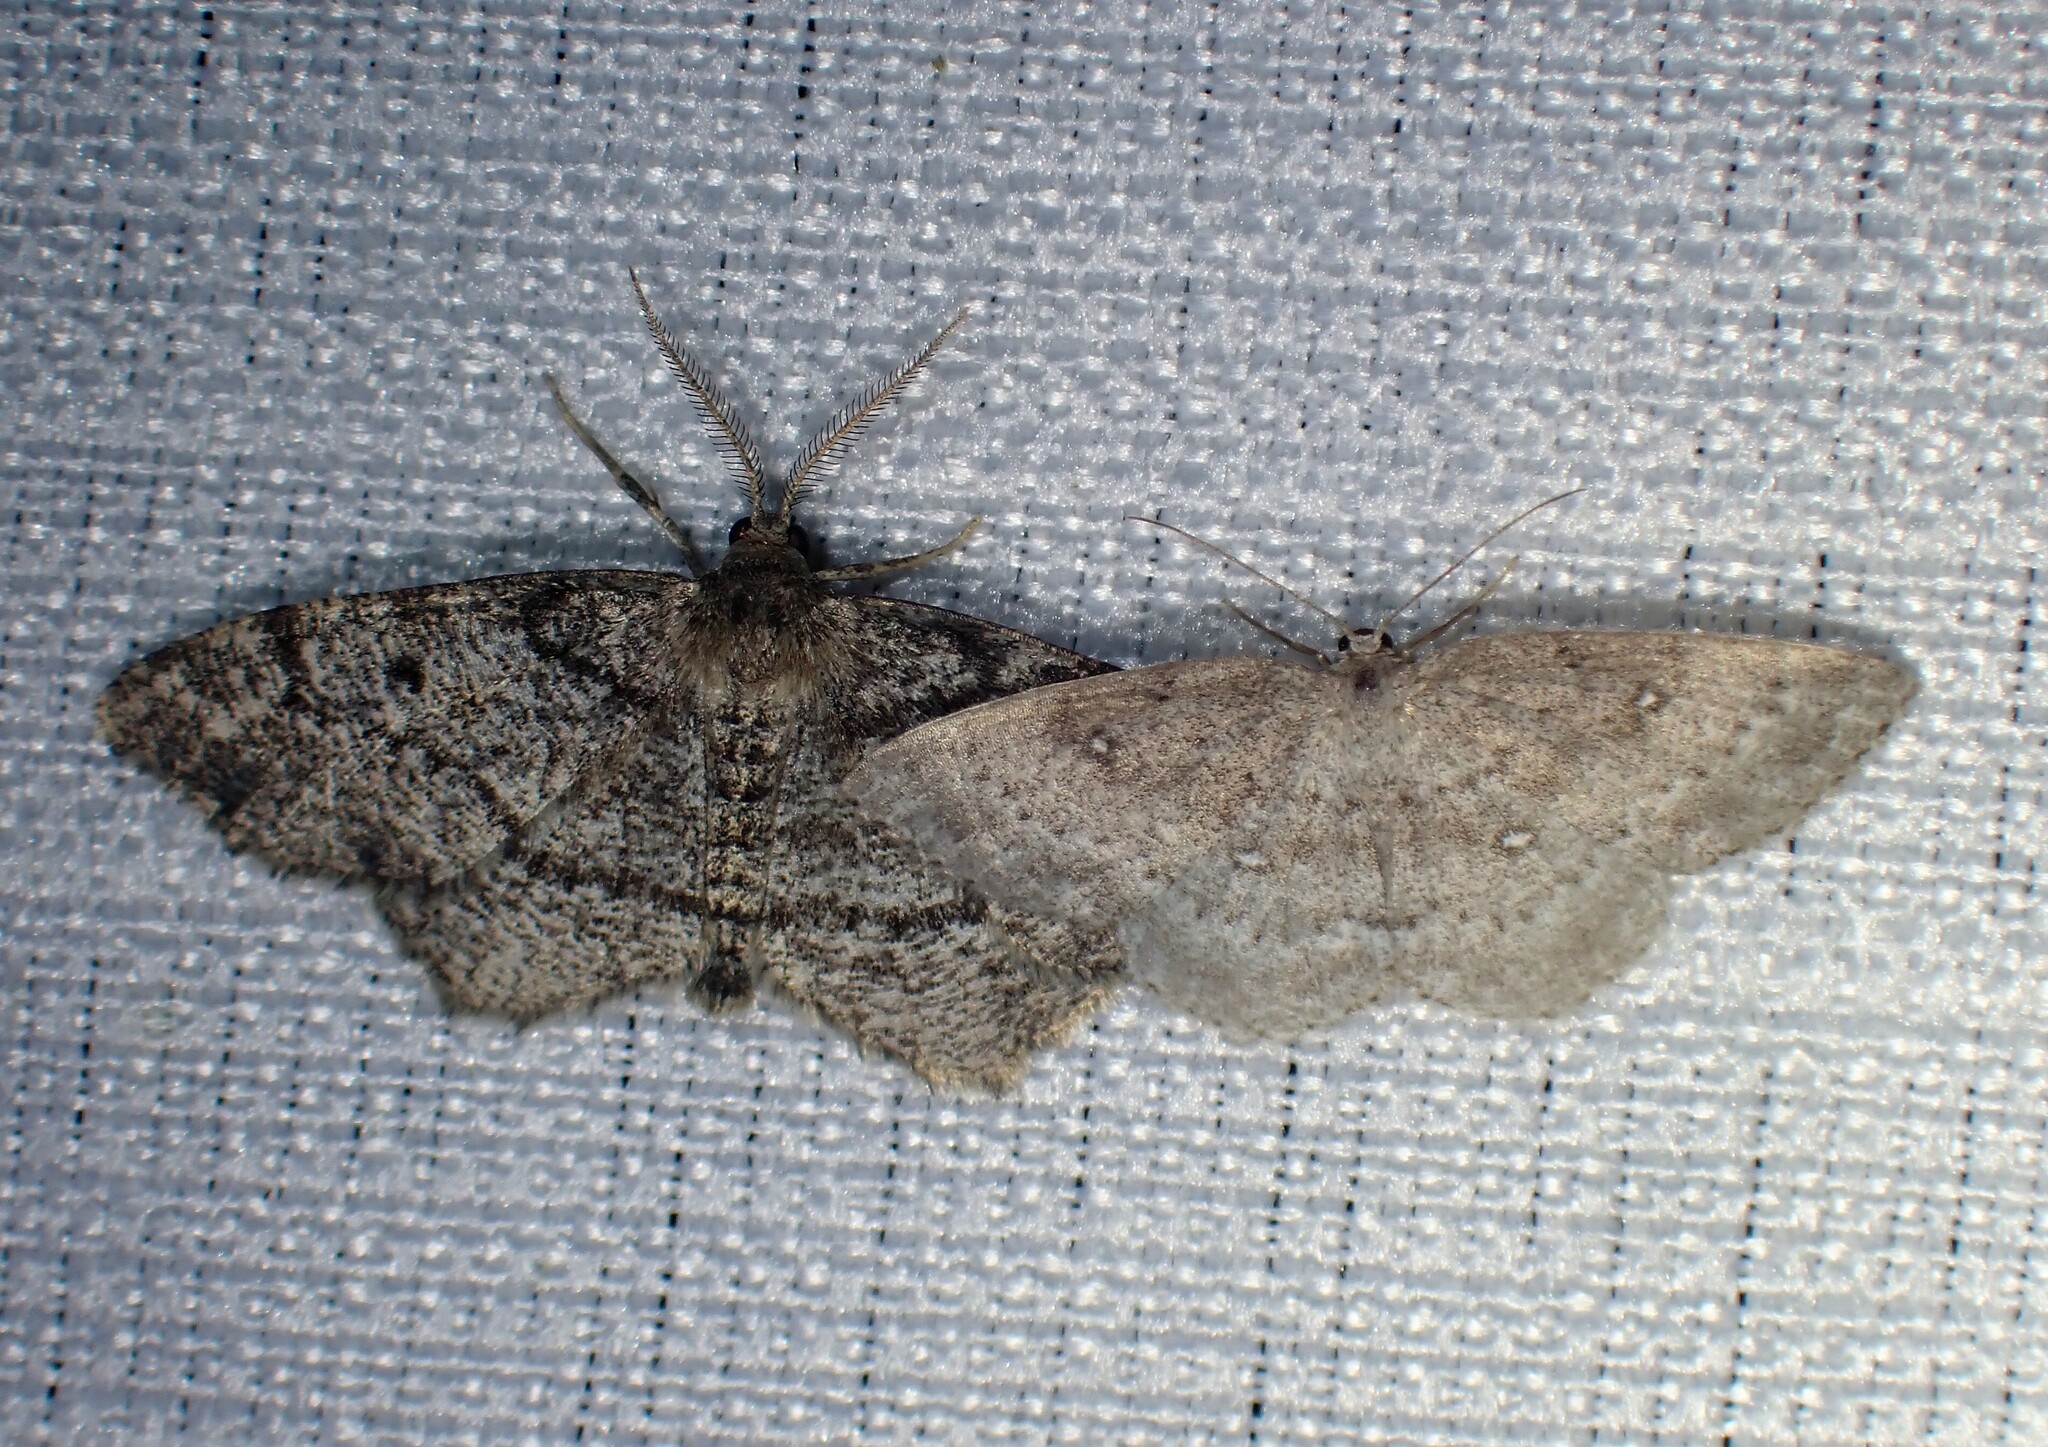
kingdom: Animalia
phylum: Arthropoda
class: Insecta
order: Lepidoptera
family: Geometridae
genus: Cyclophora
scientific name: Cyclophora pendulinaria
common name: Sweet fern geometer
